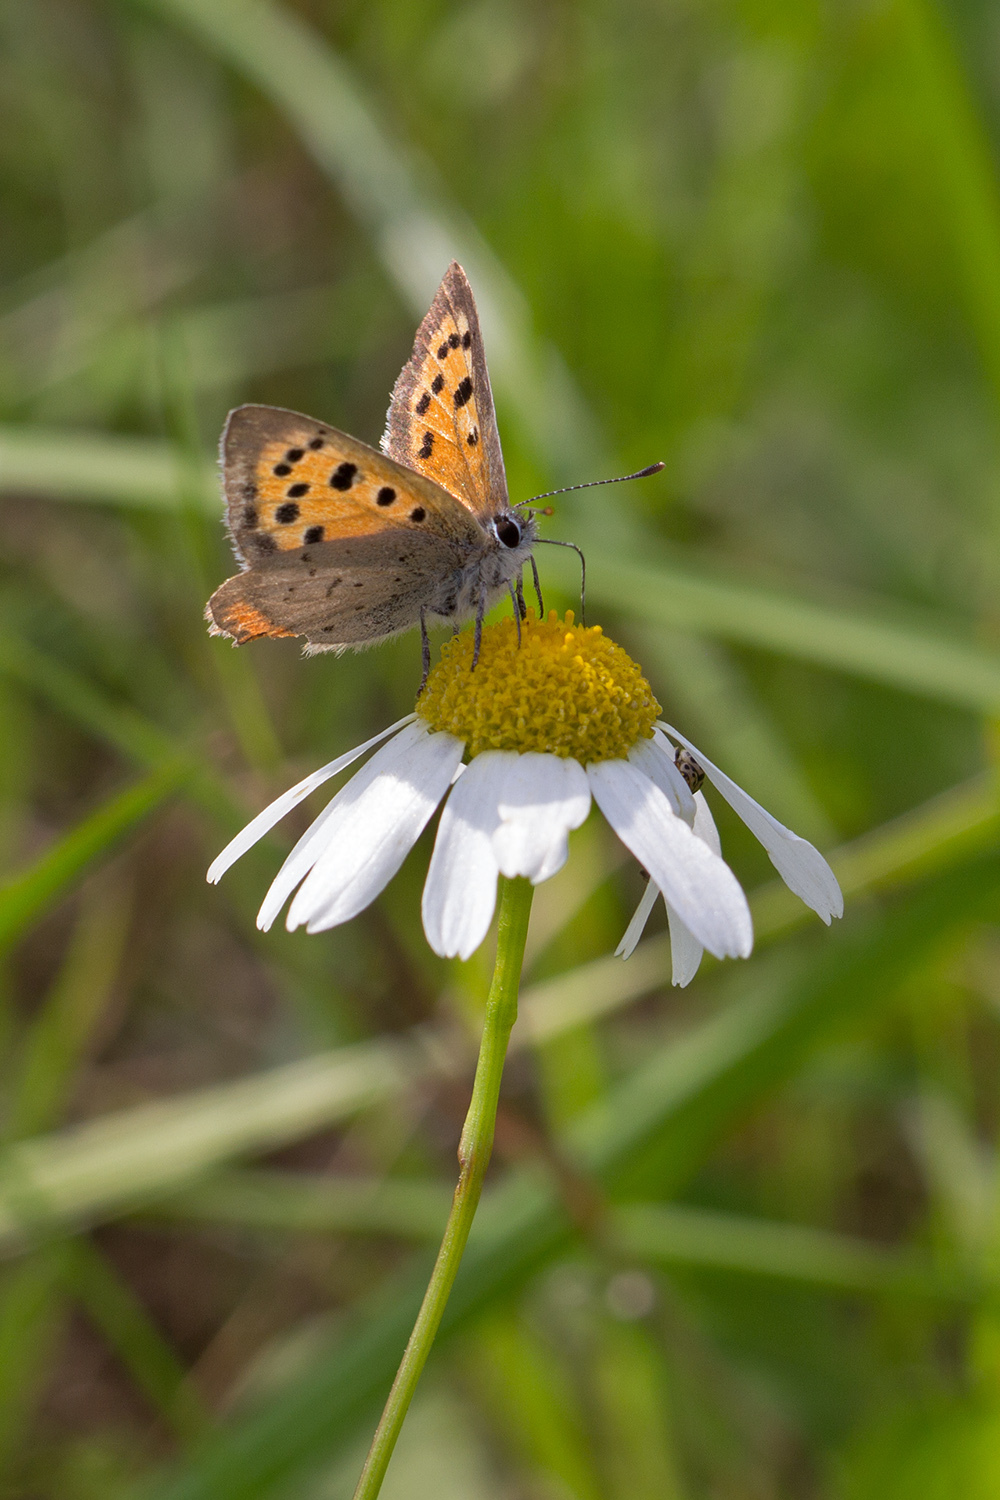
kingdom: Animalia
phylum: Arthropoda
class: Insecta
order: Lepidoptera
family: Lycaenidae
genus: Lycaena
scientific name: Lycaena phlaeas
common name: Small copper
